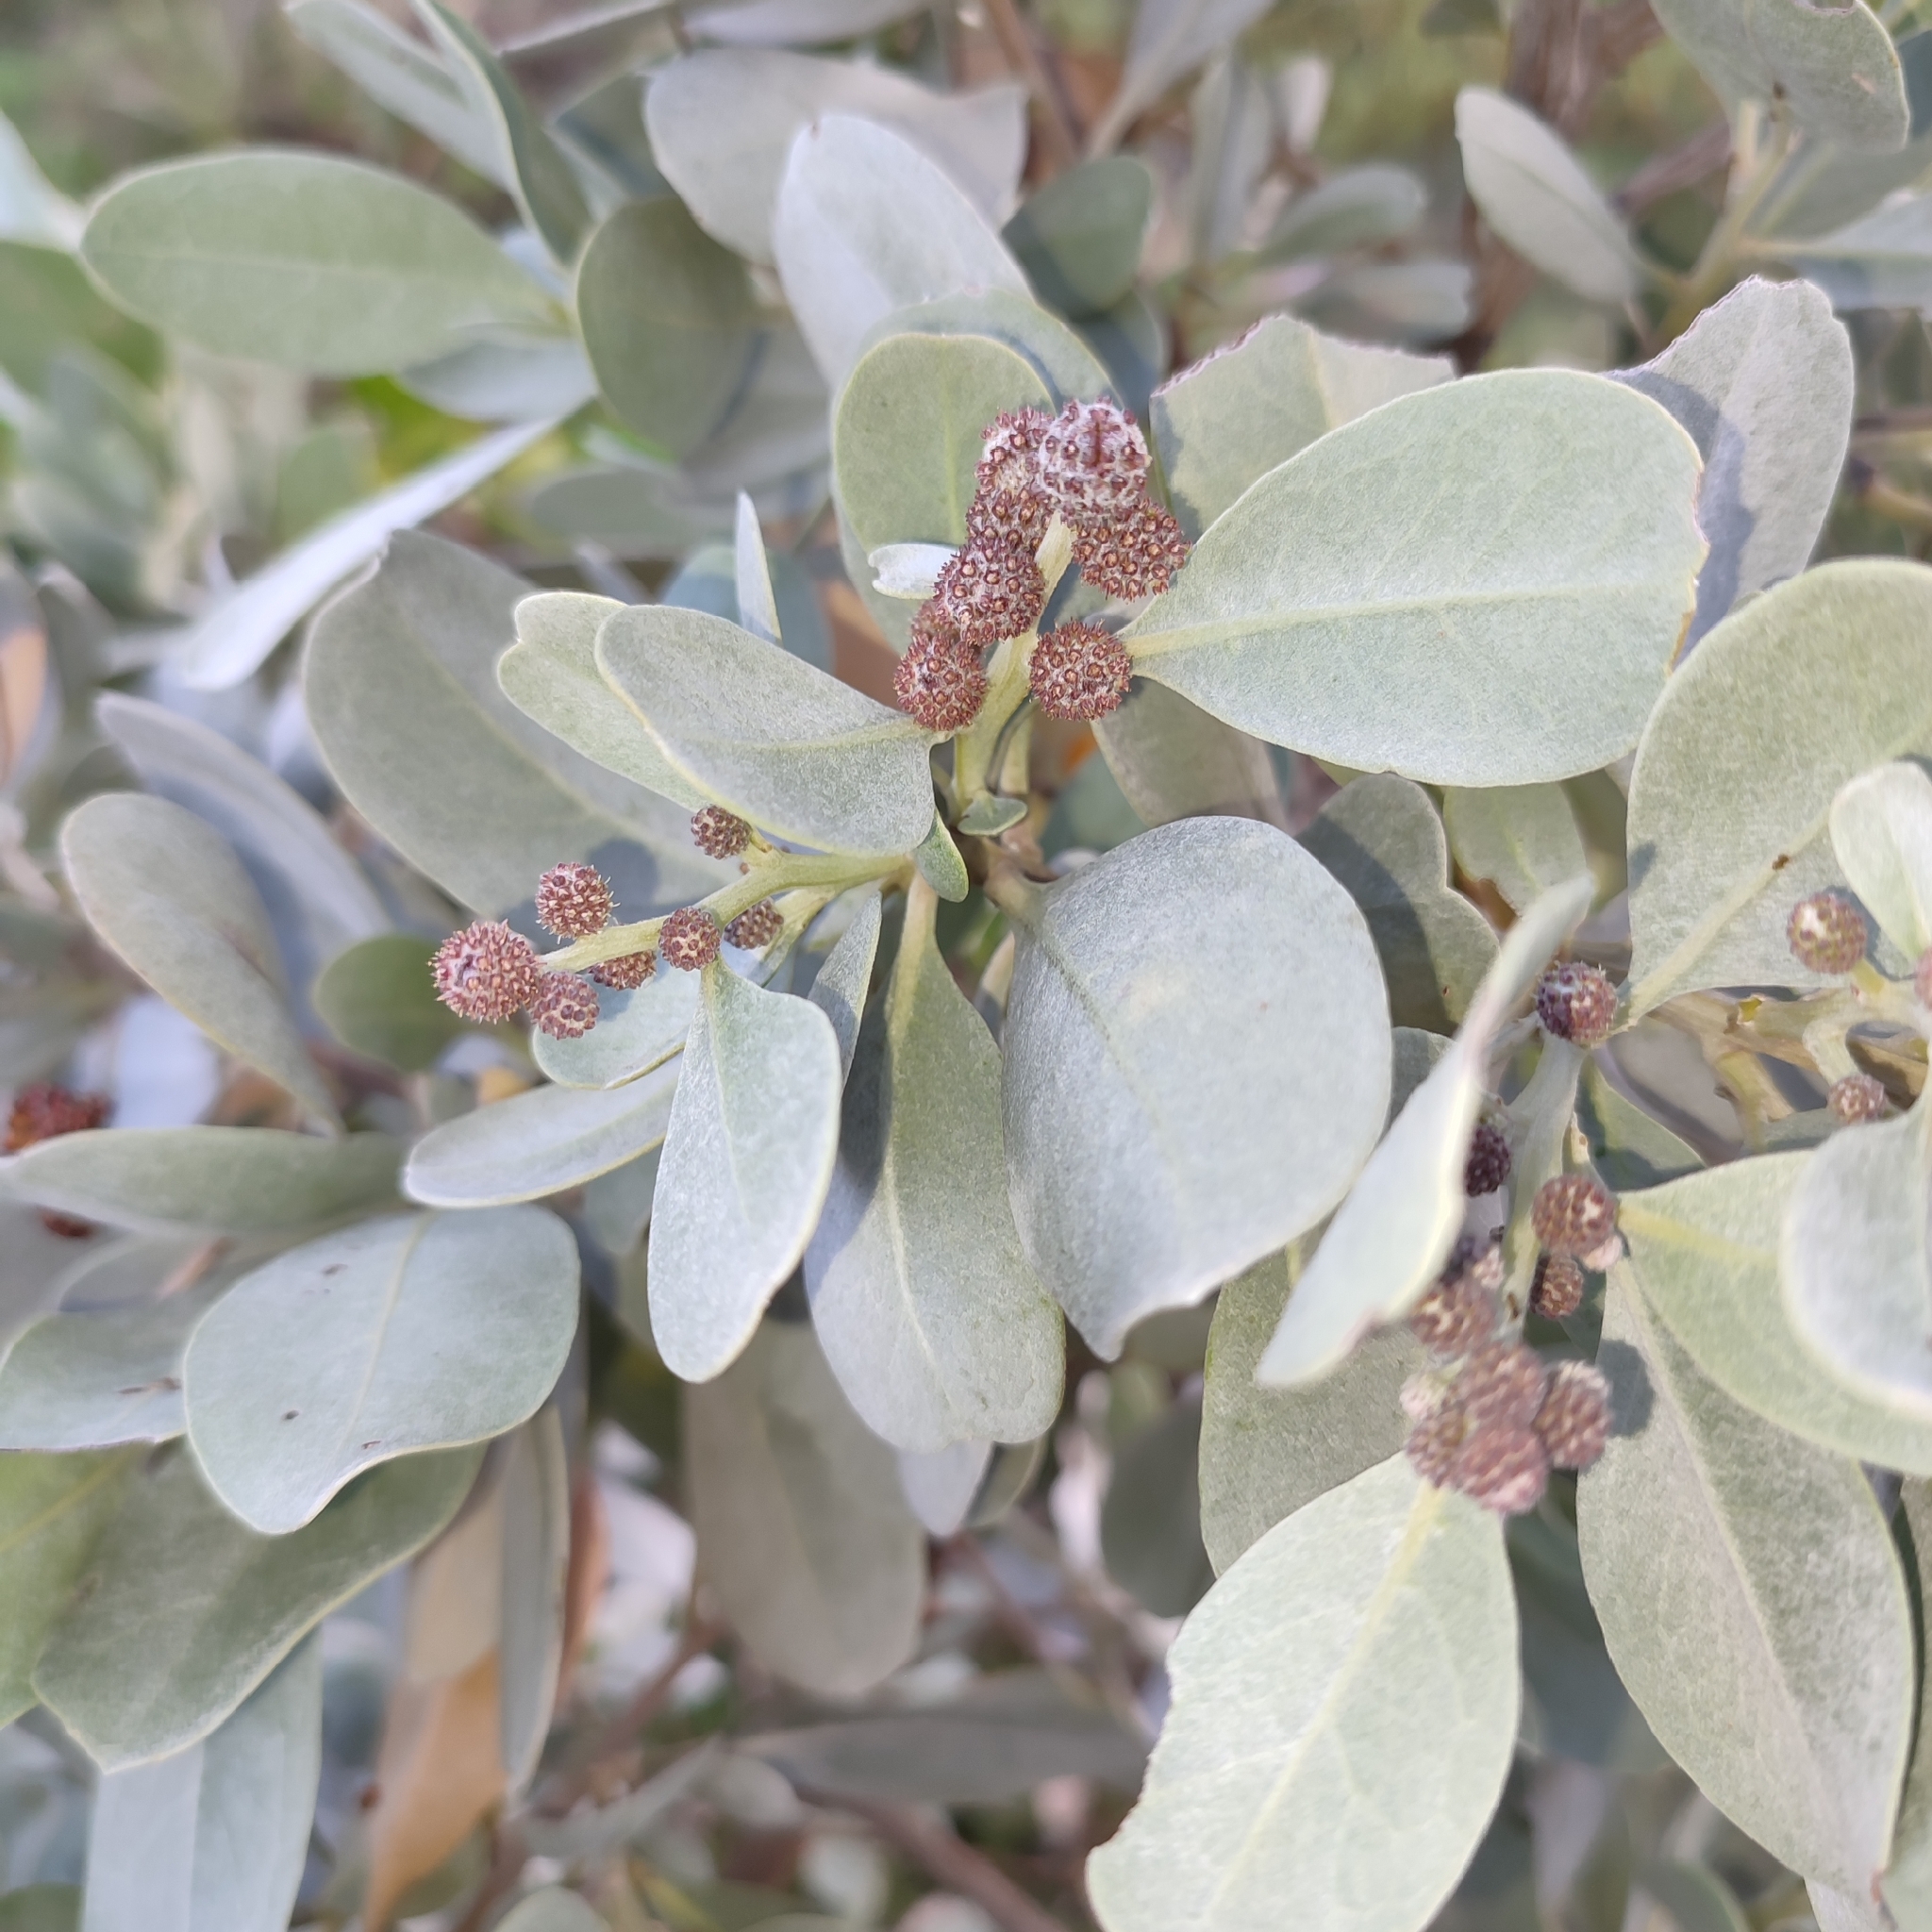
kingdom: Plantae
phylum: Tracheophyta
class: Magnoliopsida
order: Myrtales
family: Combretaceae
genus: Conocarpus
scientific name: Conocarpus erectus
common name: Button mangrove
